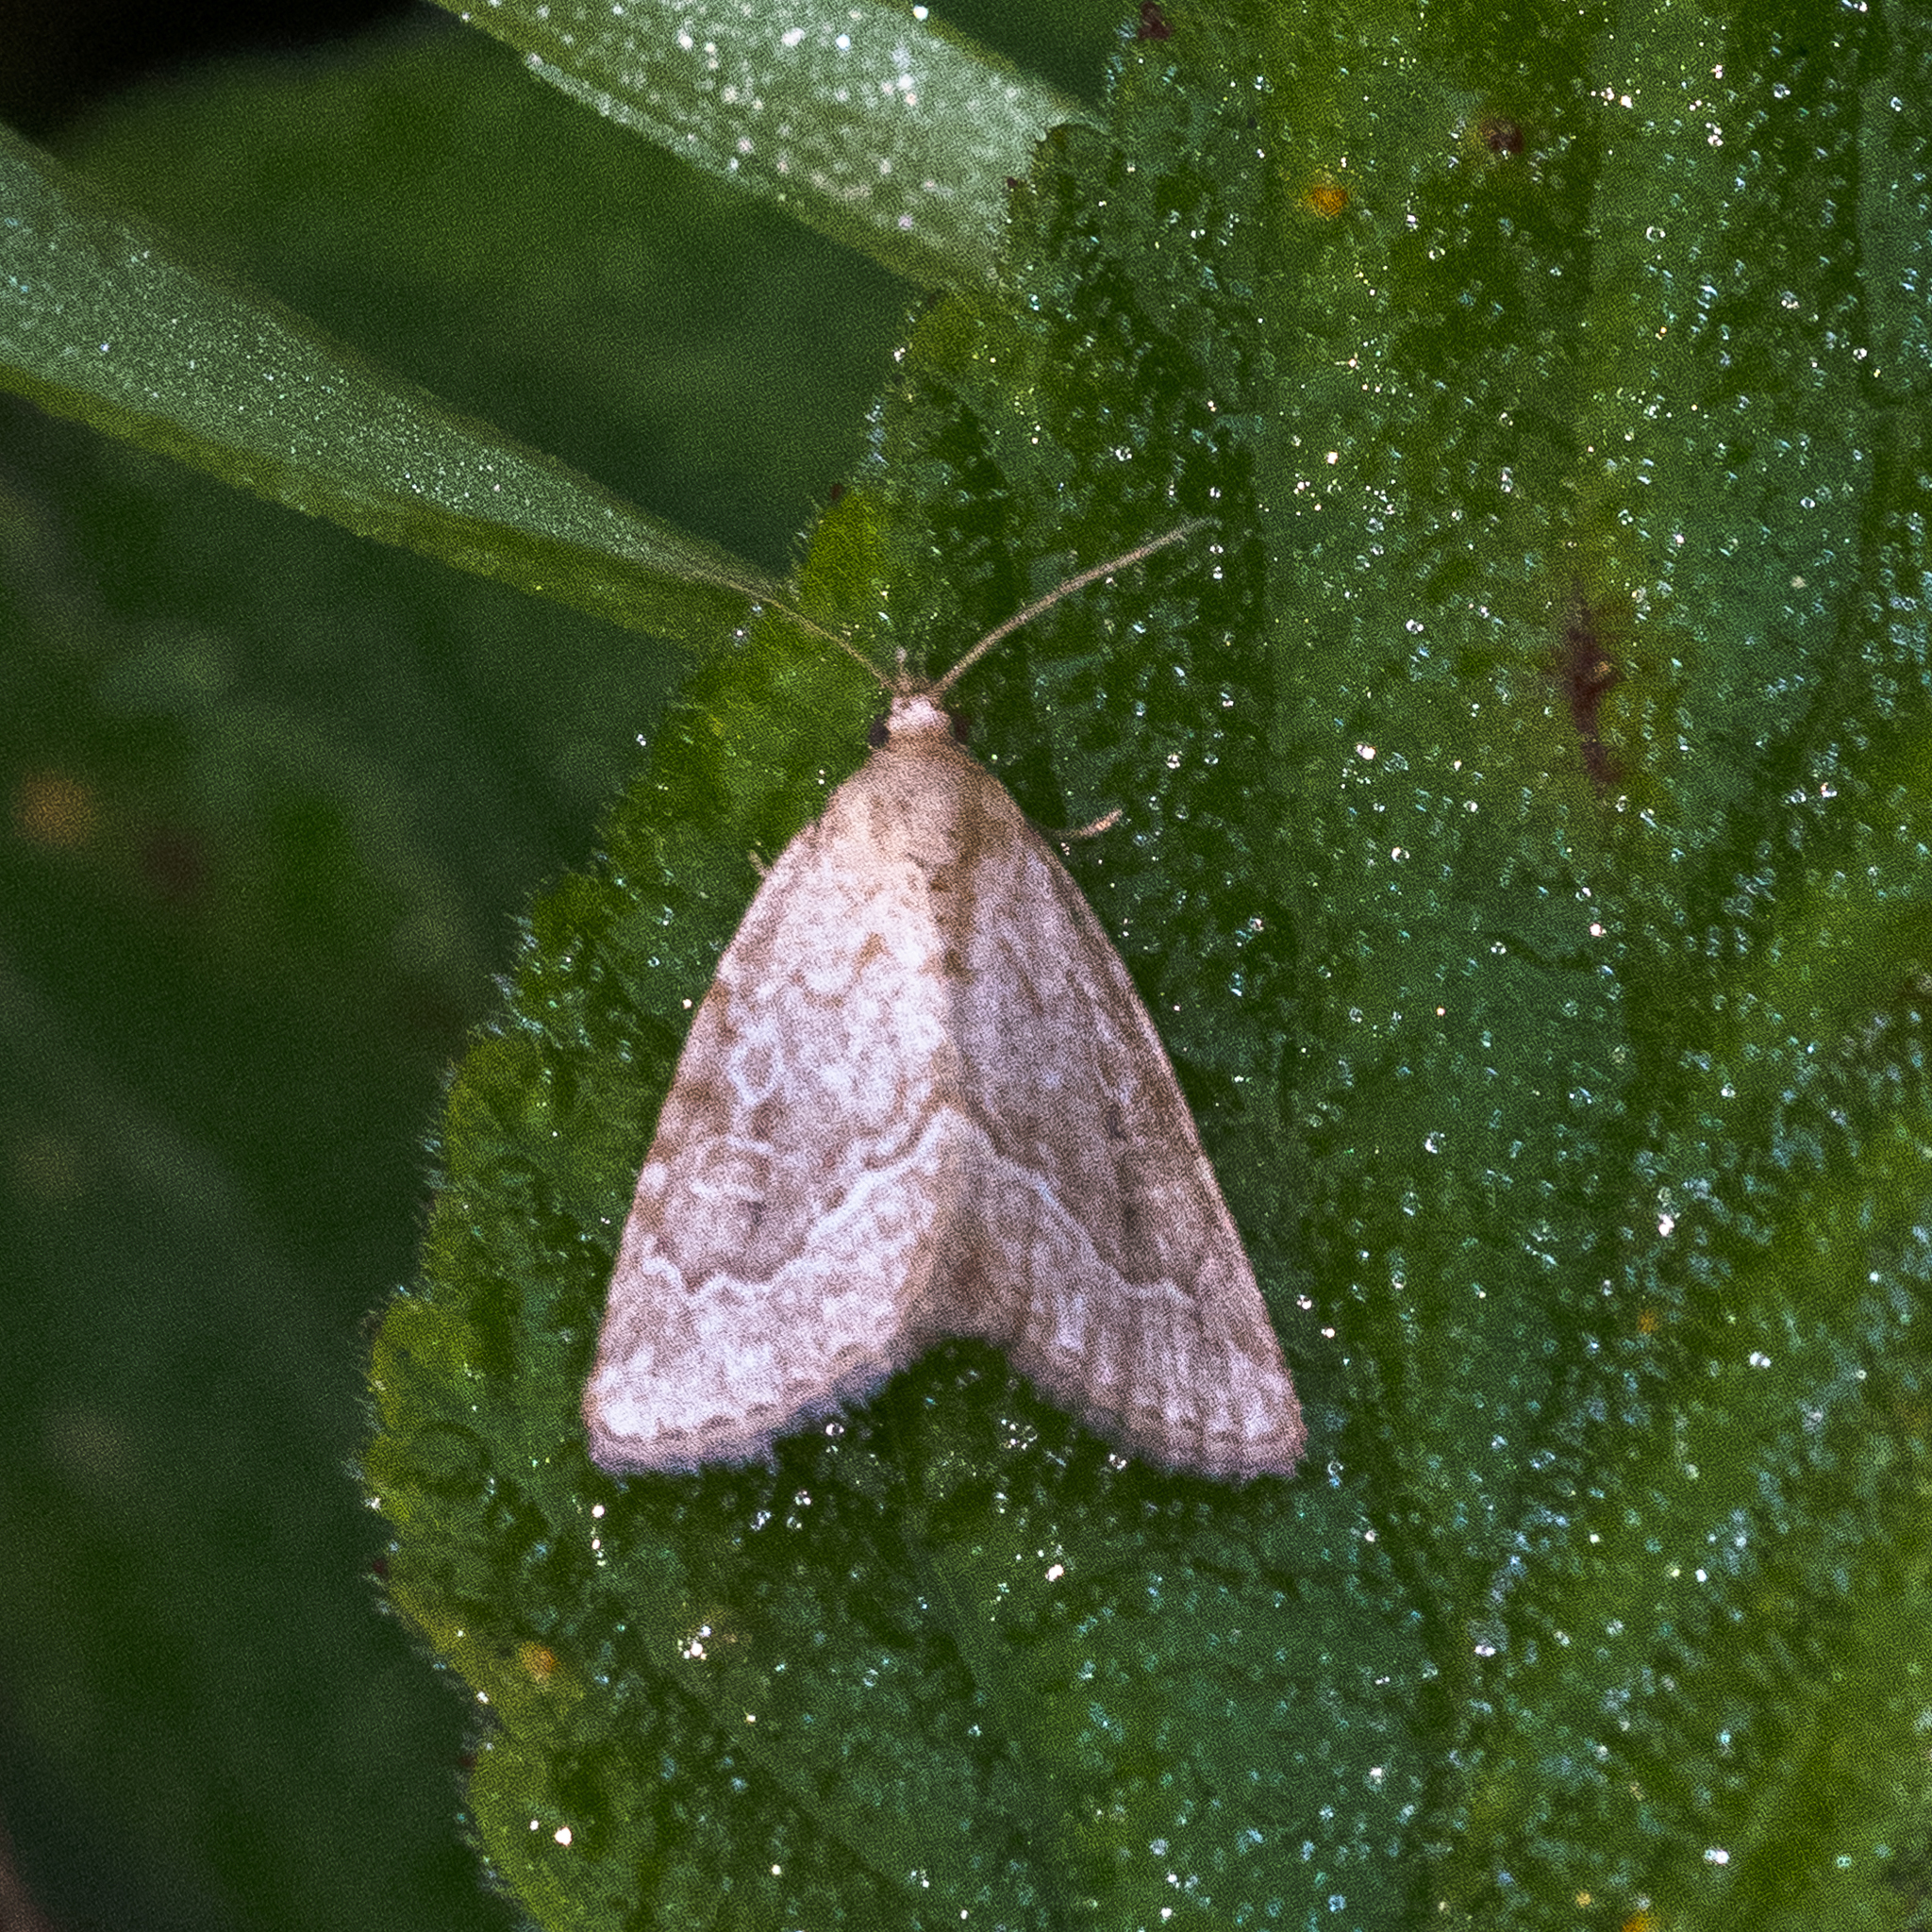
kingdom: Animalia
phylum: Arthropoda
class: Insecta
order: Lepidoptera
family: Noctuidae
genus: Protodeltote
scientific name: Protodeltote albidula
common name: Pale glyph
